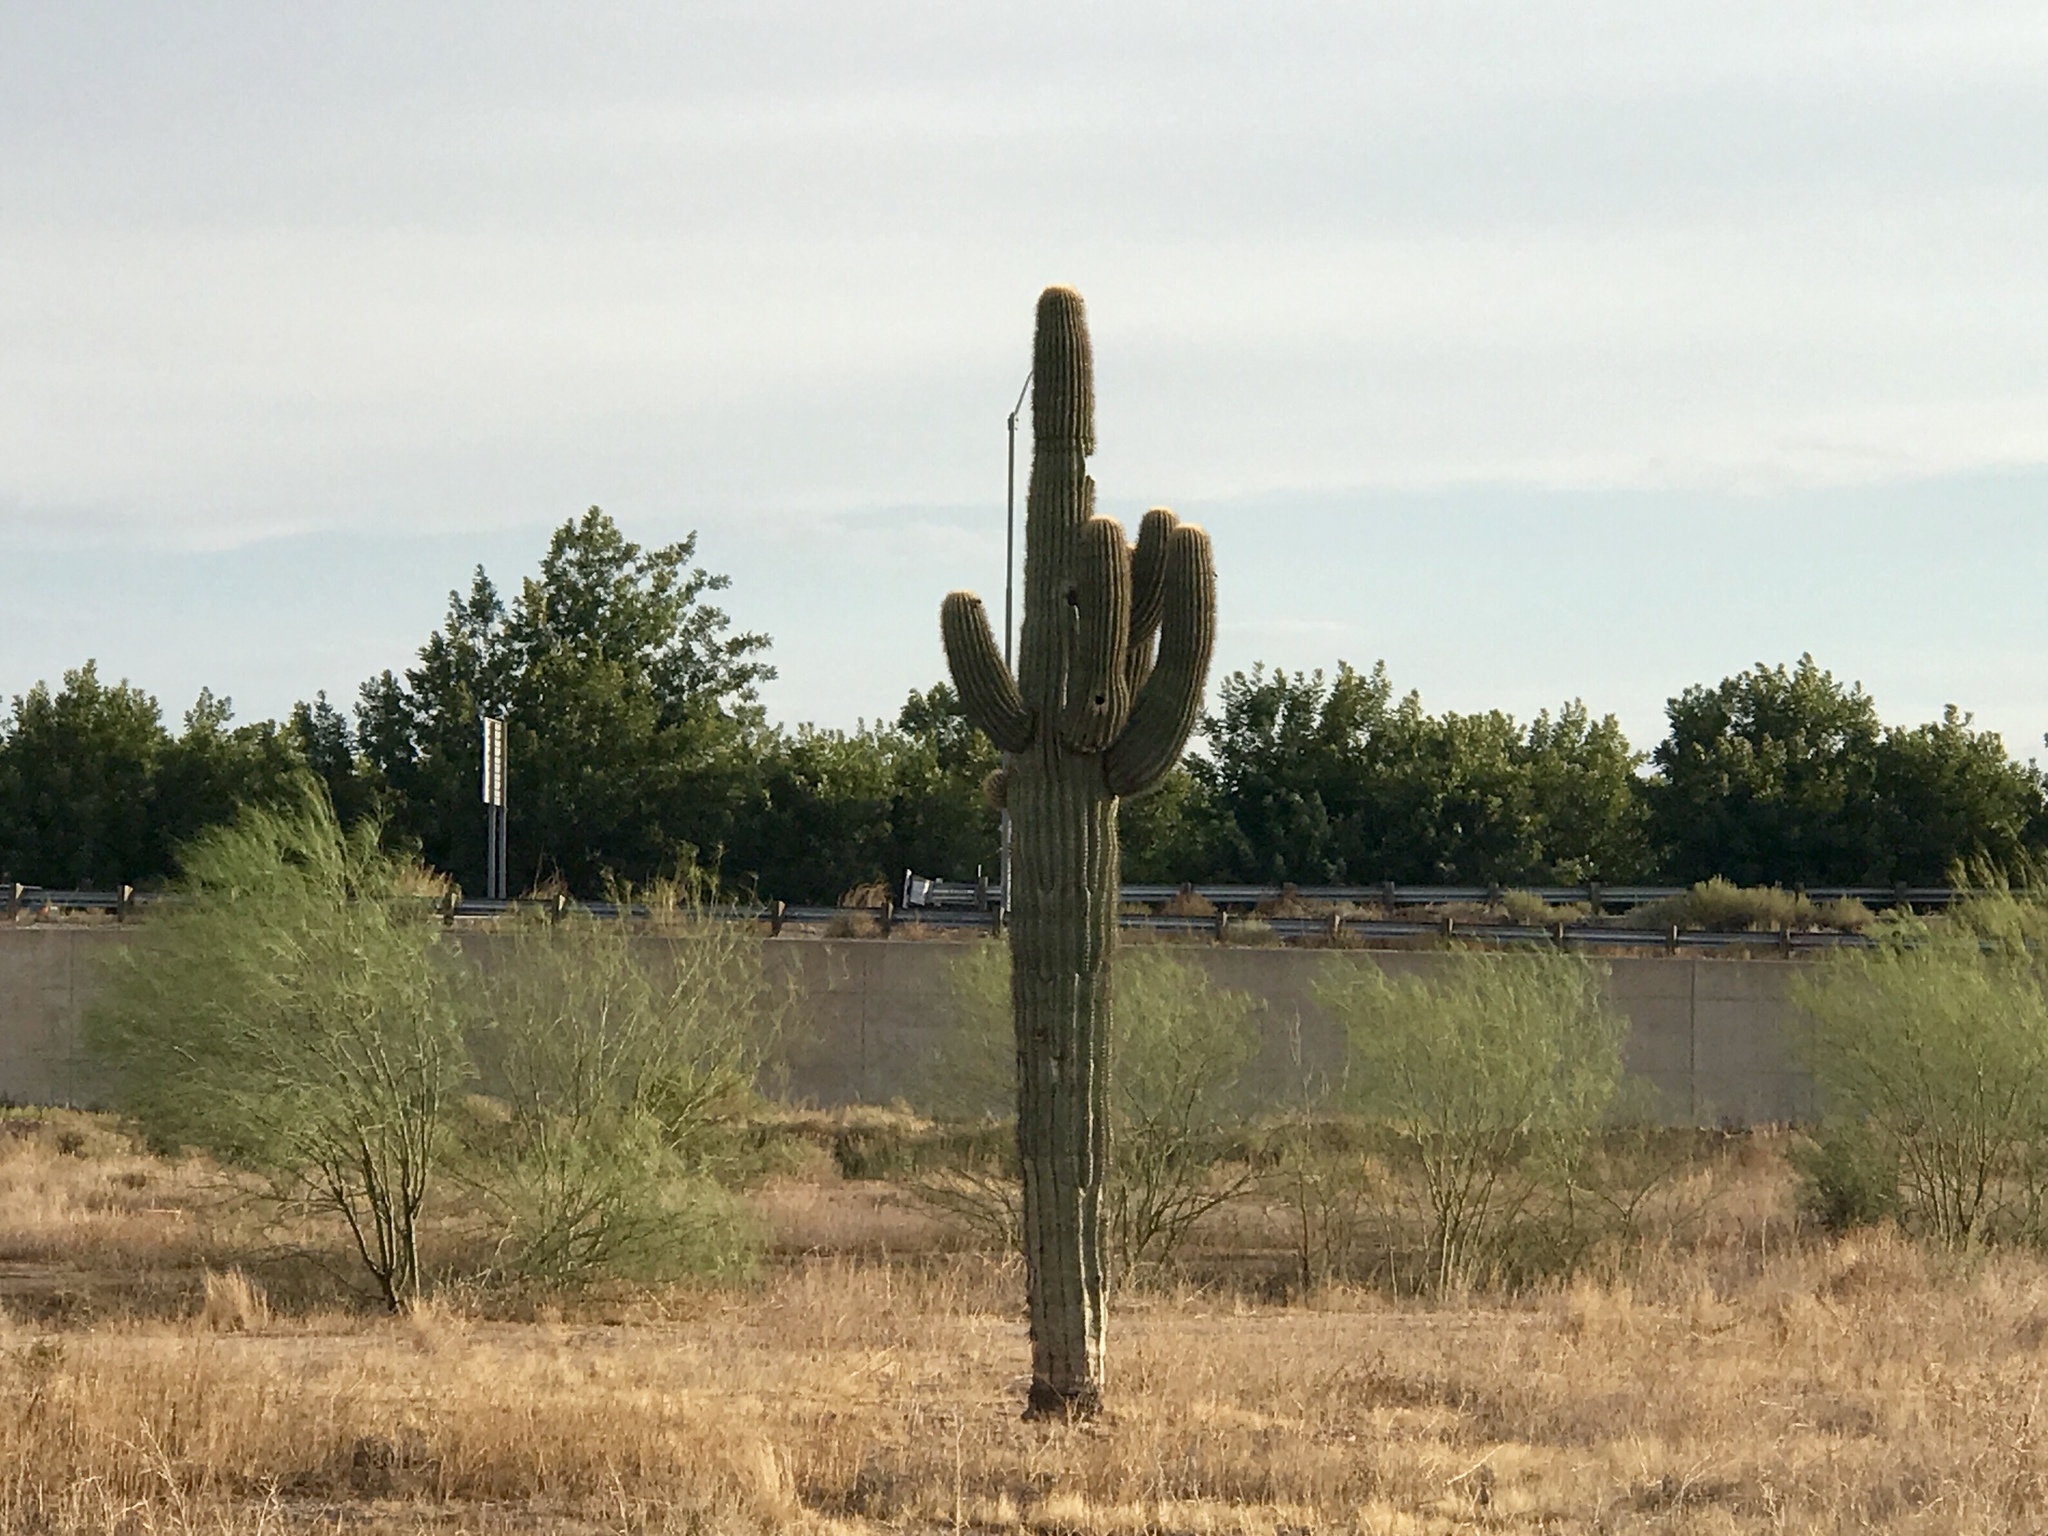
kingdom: Plantae
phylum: Tracheophyta
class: Magnoliopsida
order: Caryophyllales
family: Cactaceae
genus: Carnegiea
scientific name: Carnegiea gigantea
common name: Saguaro
